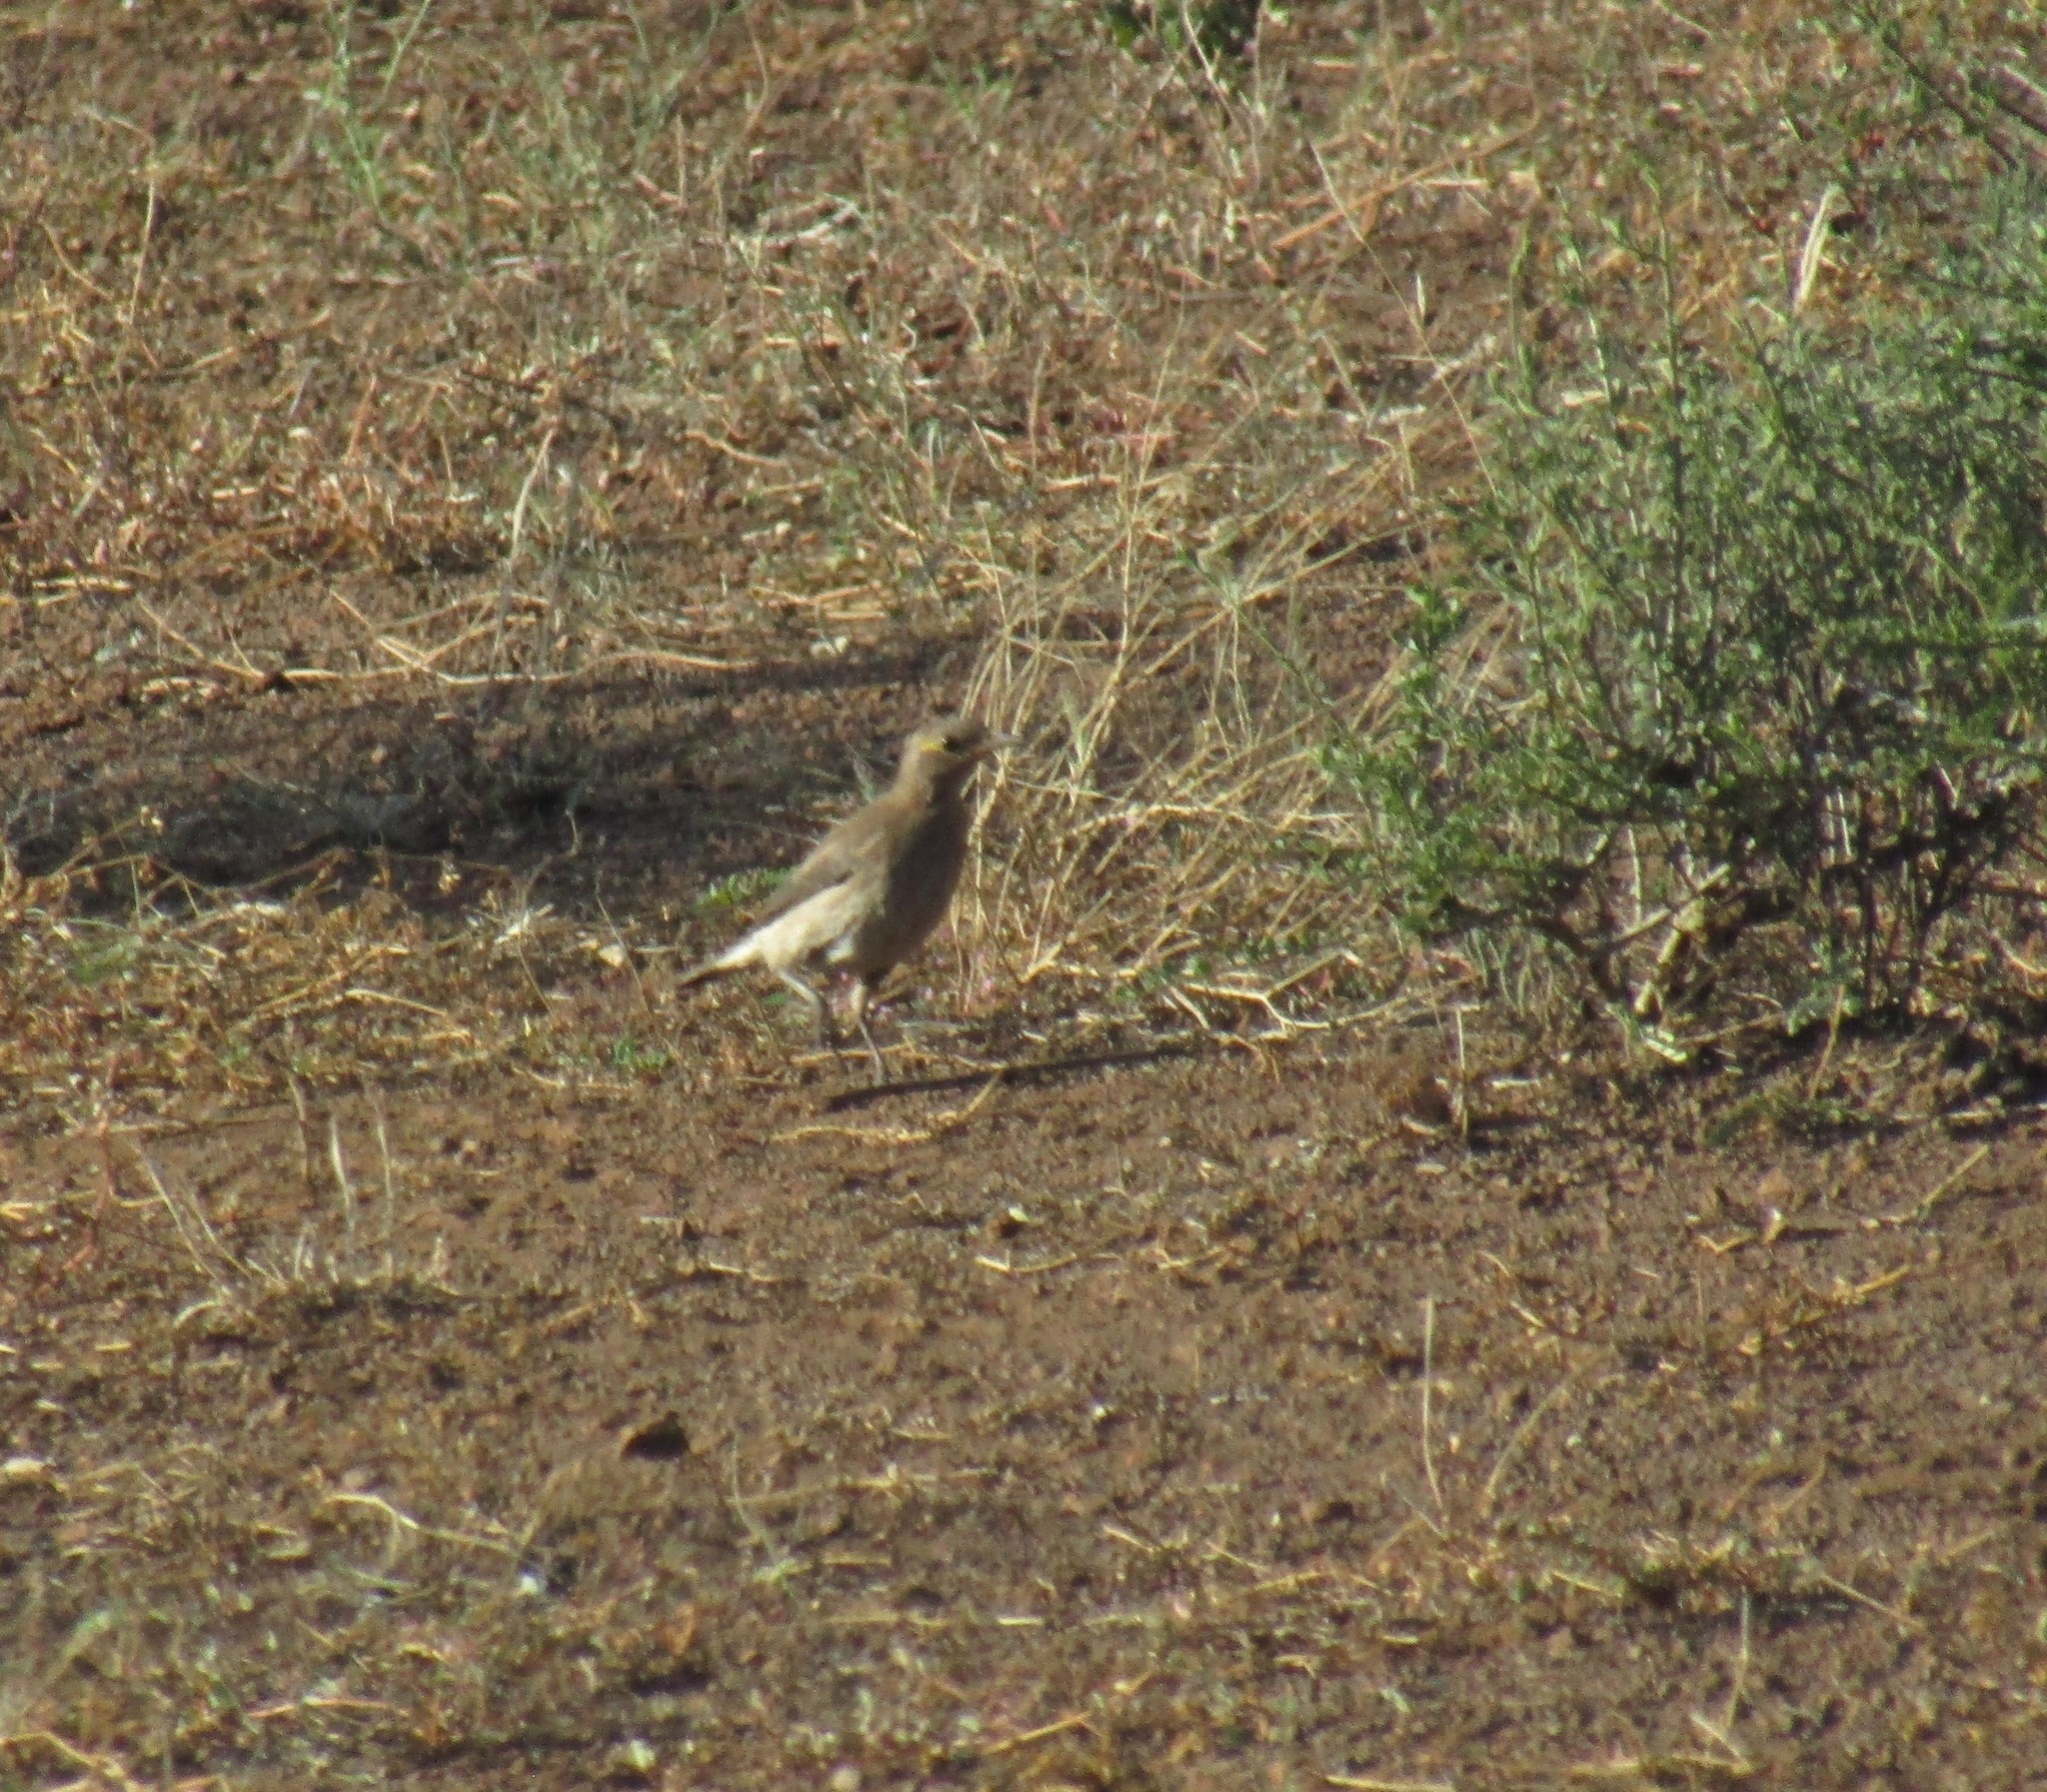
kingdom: Animalia
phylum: Chordata
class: Aves
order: Passeriformes
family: Sturnidae
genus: Creatophora
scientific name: Creatophora cinerea
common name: Wattled starling
